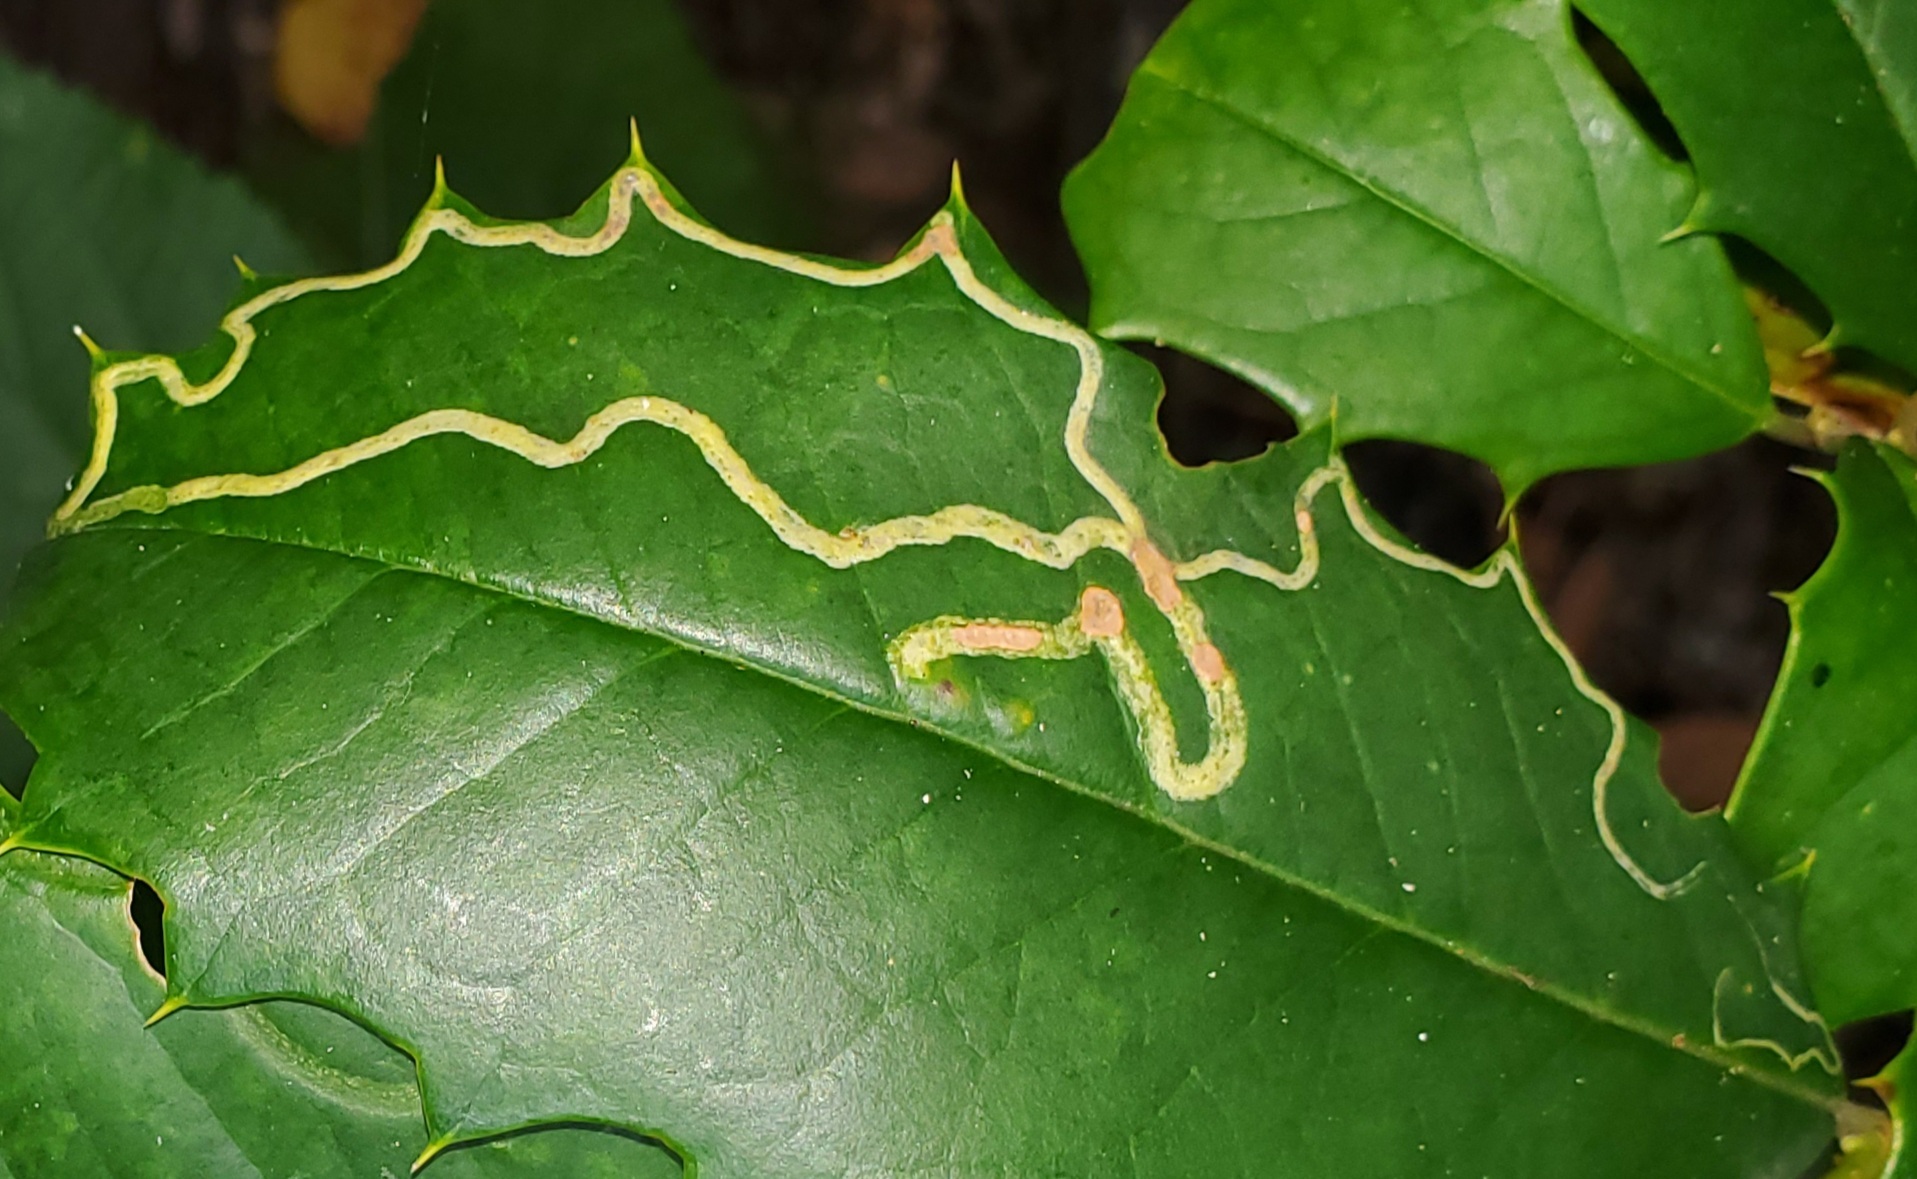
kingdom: Animalia
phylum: Arthropoda
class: Insecta
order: Diptera
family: Agromyzidae
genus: Phytomyza
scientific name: Phytomyza opacae
